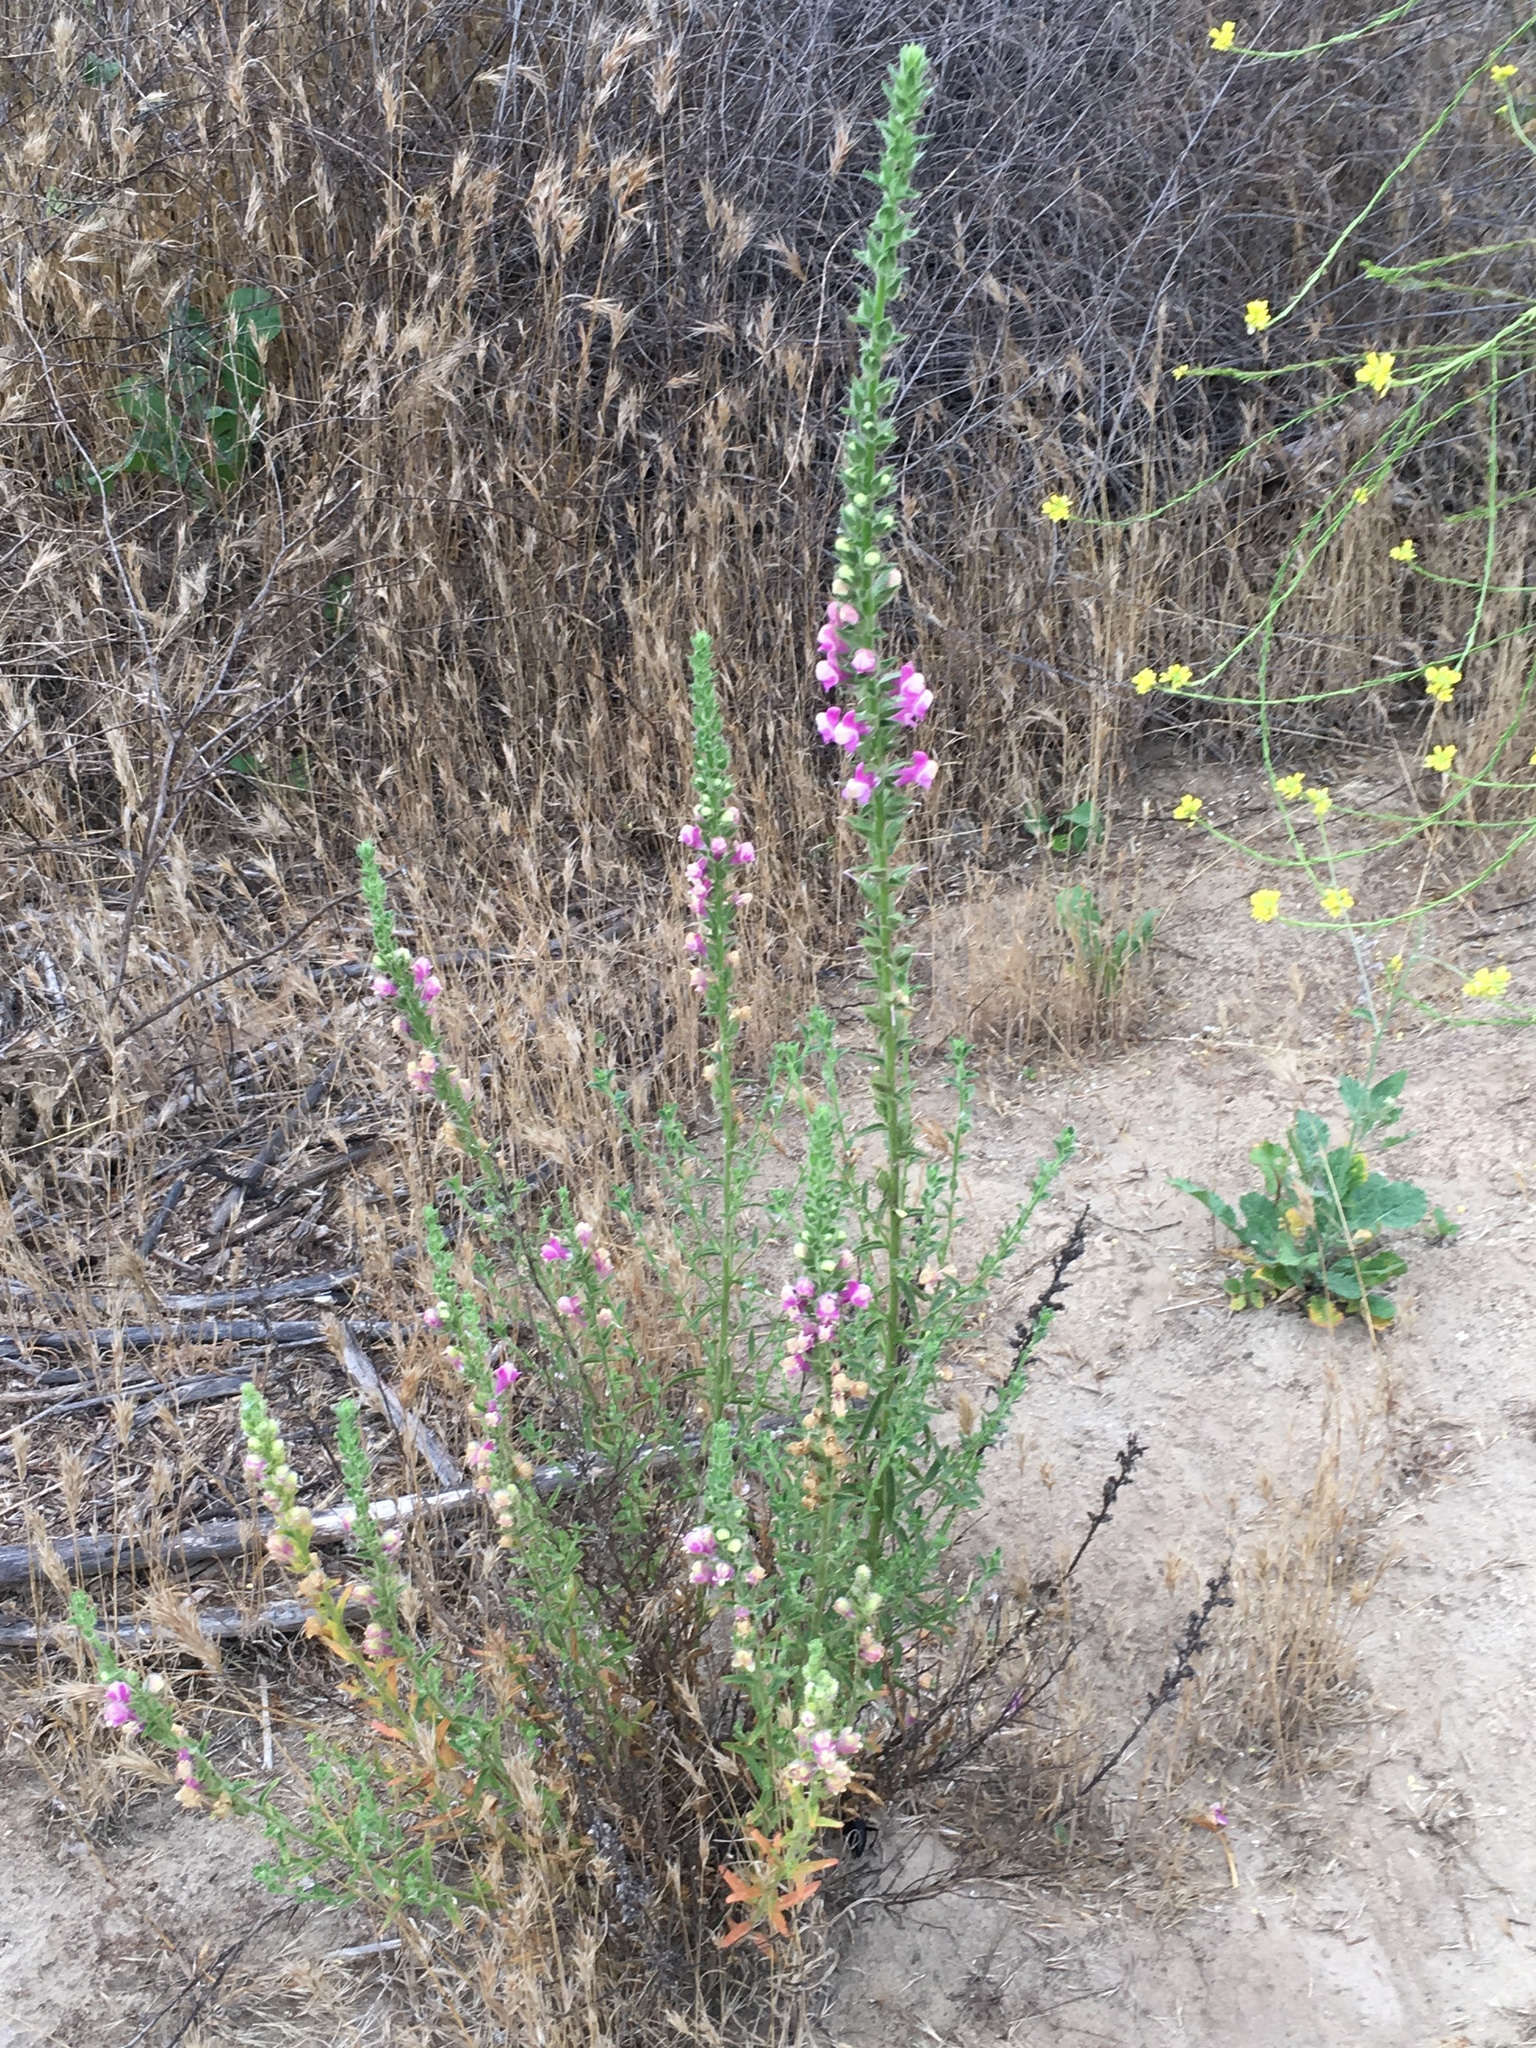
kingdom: Plantae
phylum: Tracheophyta
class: Magnoliopsida
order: Lamiales
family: Plantaginaceae
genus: Sairocarpus
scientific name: Sairocarpus multiflorus
